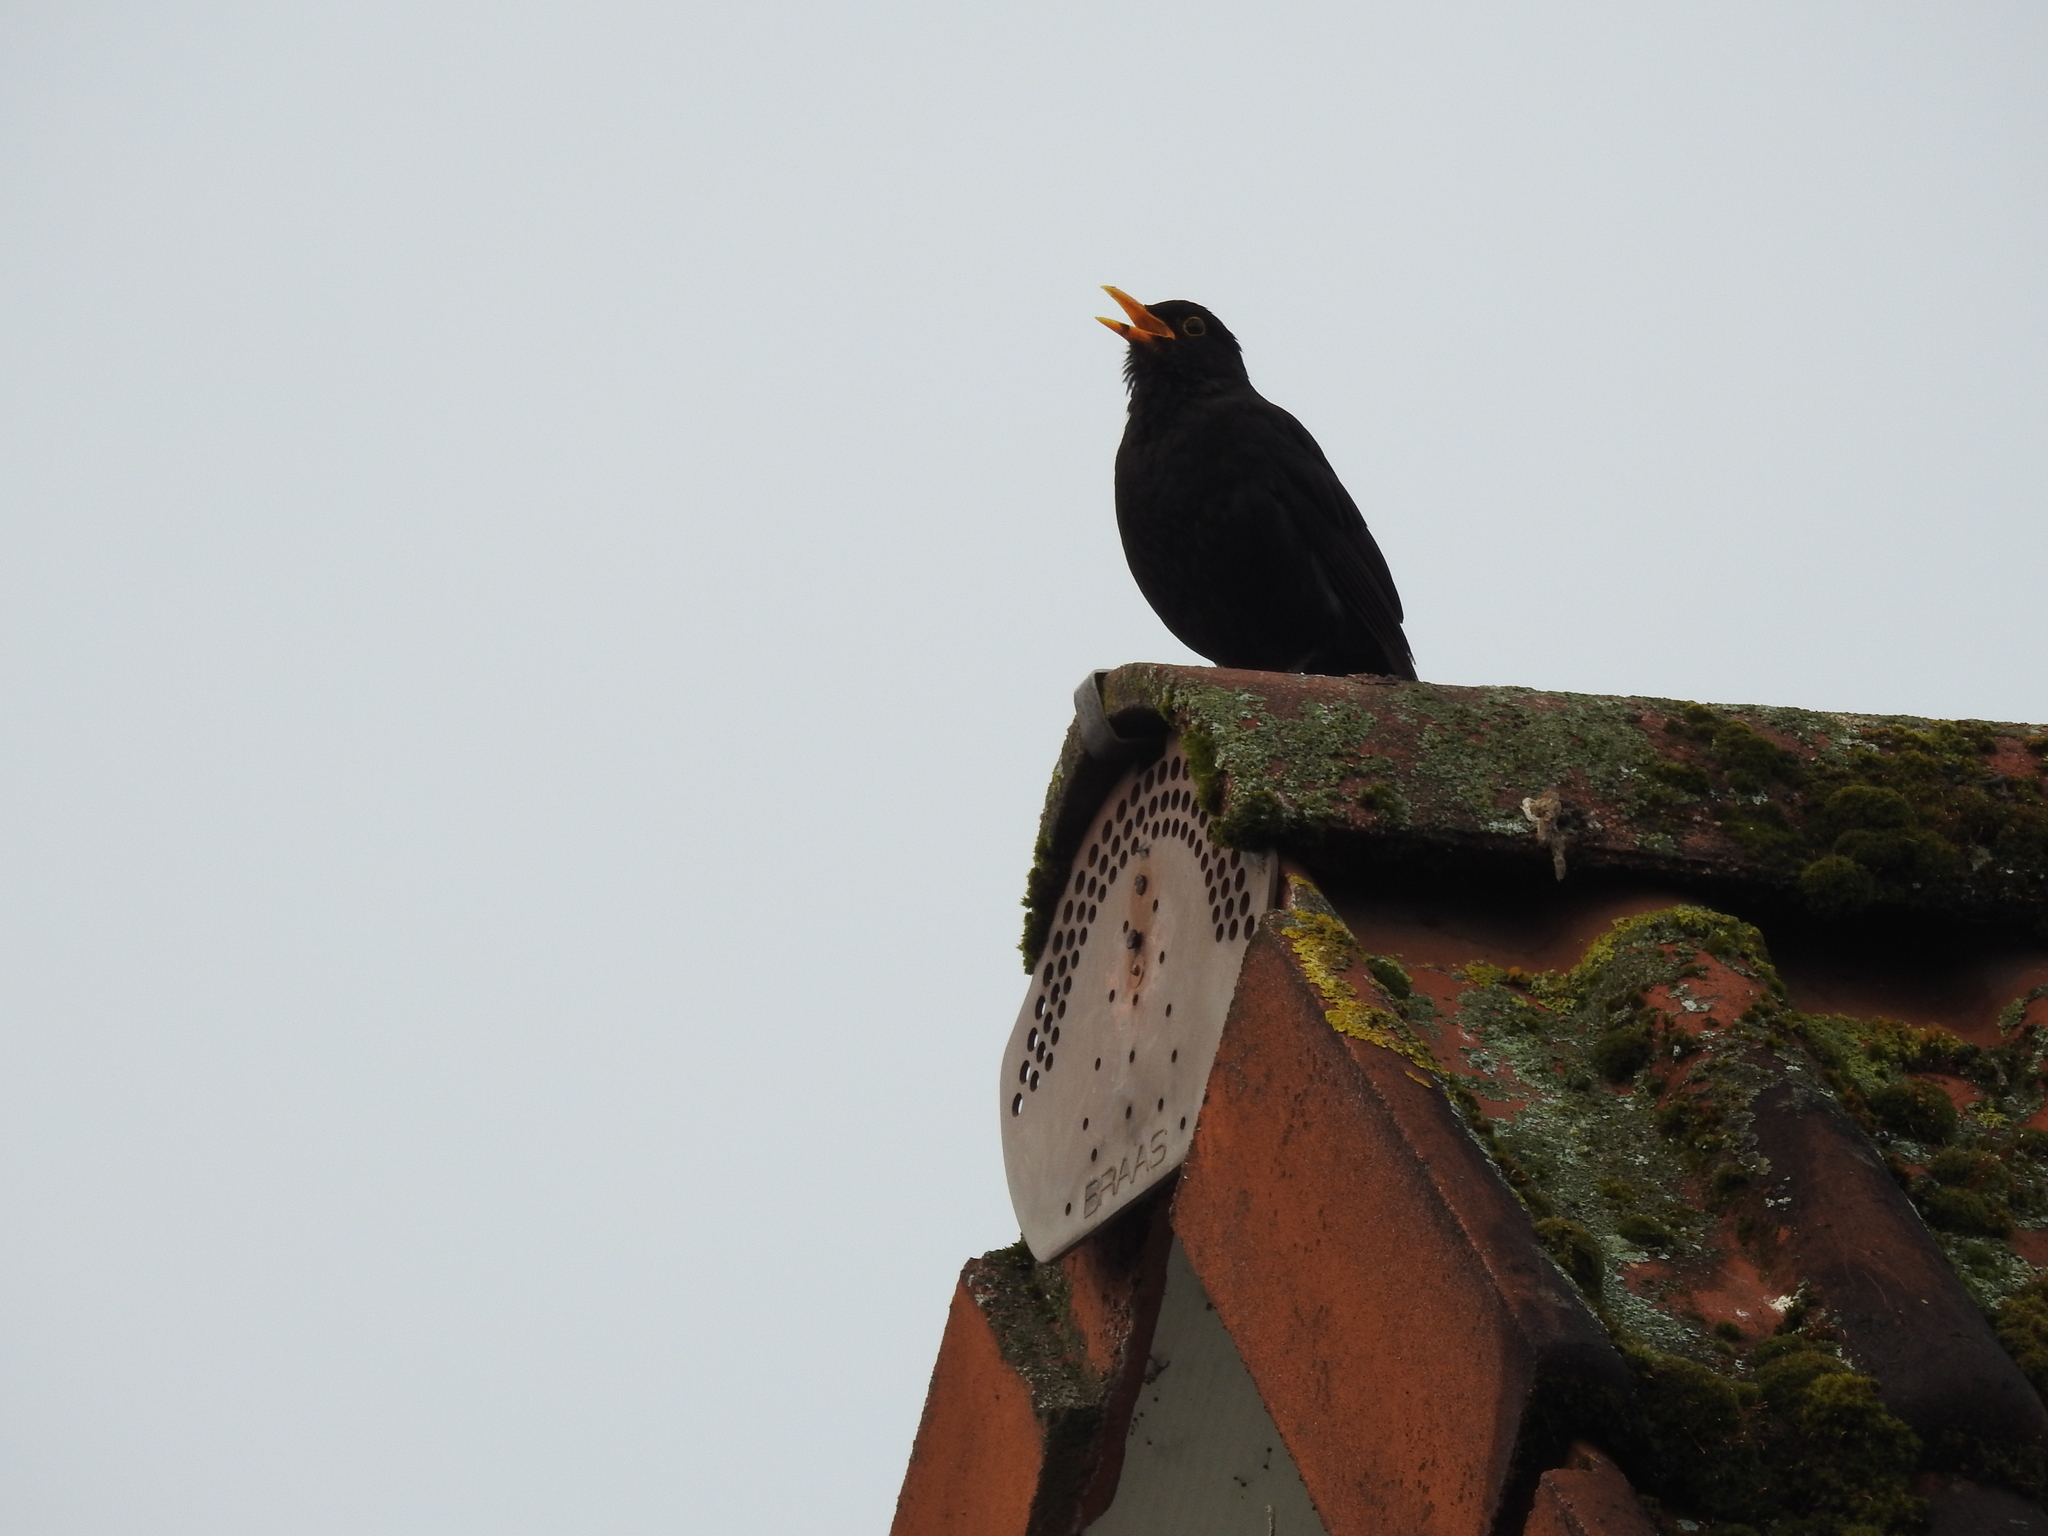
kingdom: Animalia
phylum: Chordata
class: Aves
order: Passeriformes
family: Turdidae
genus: Turdus
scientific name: Turdus merula
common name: Common blackbird
